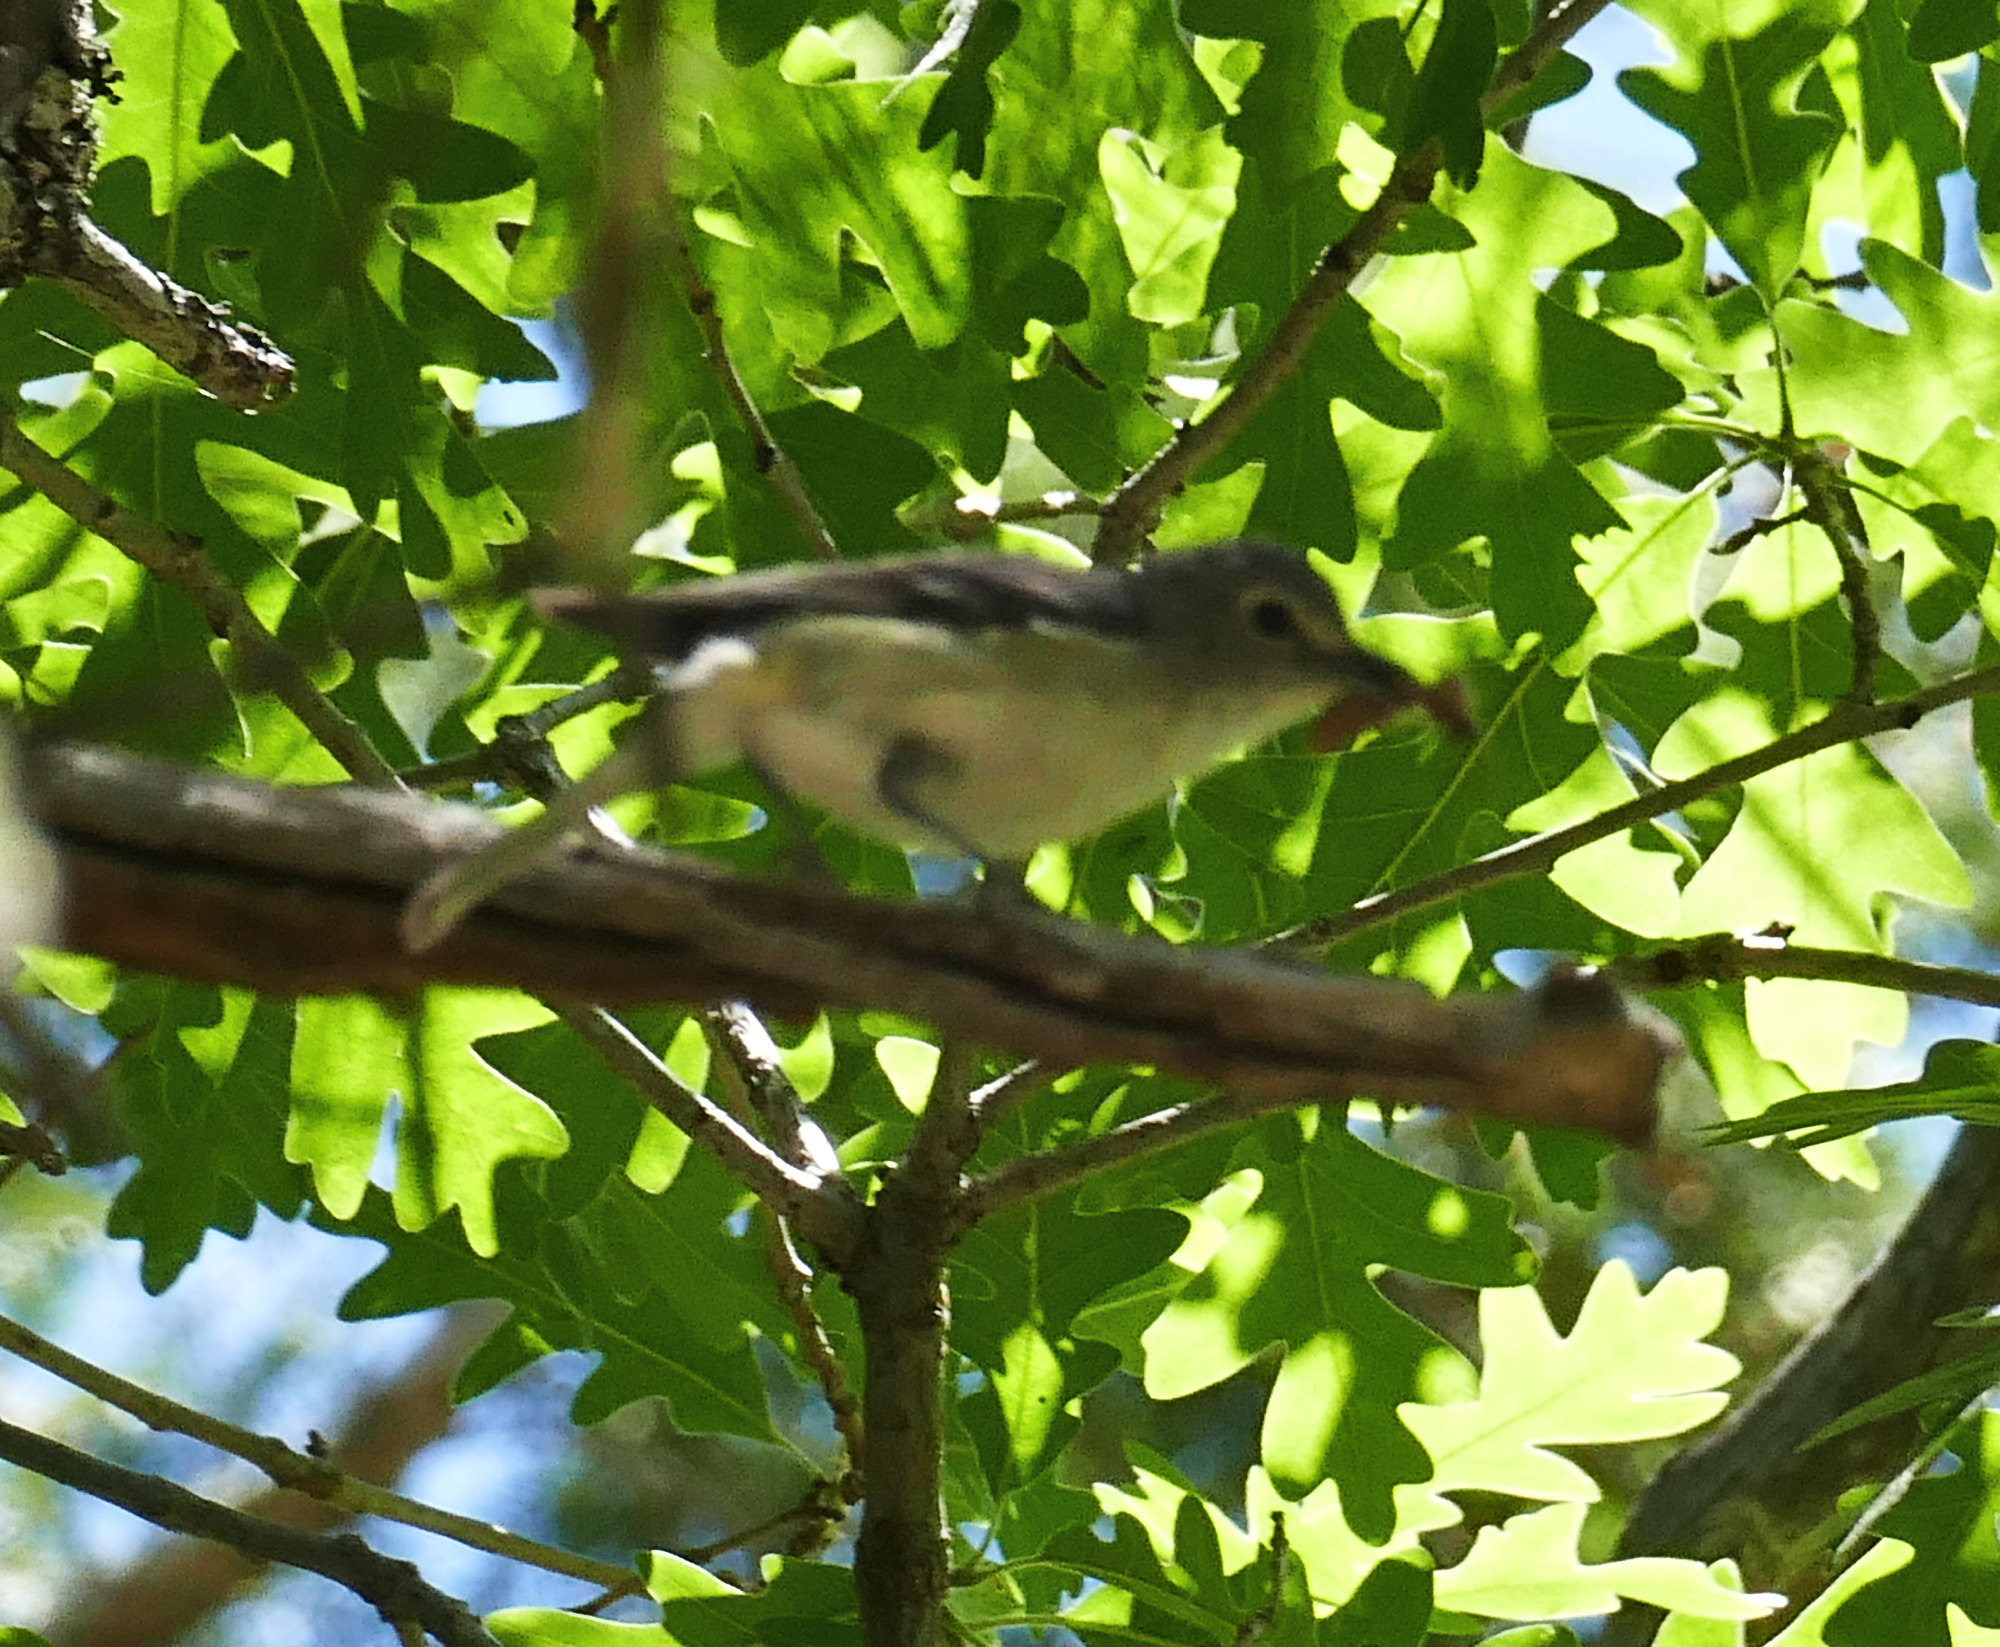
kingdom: Animalia
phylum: Chordata
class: Aves
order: Passeriformes
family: Vireonidae
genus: Vireo
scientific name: Vireo plumbeus
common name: Plumbeous vireo
